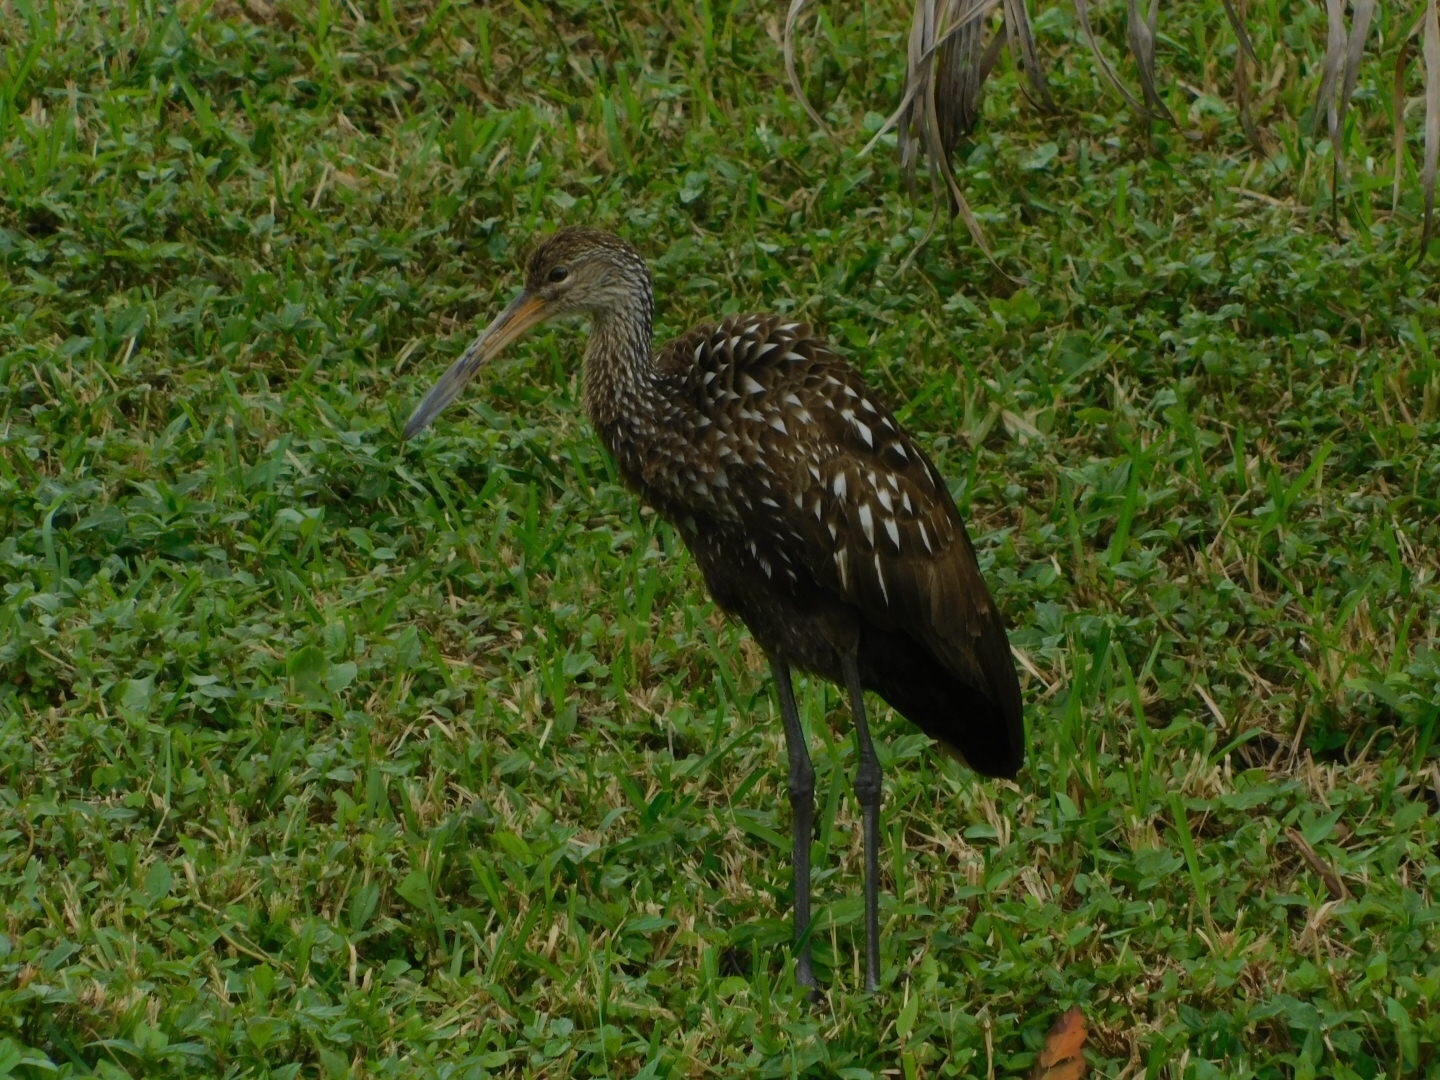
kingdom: Animalia
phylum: Chordata
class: Aves
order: Gruiformes
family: Aramidae
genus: Aramus
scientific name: Aramus guarauna
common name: Limpkin
